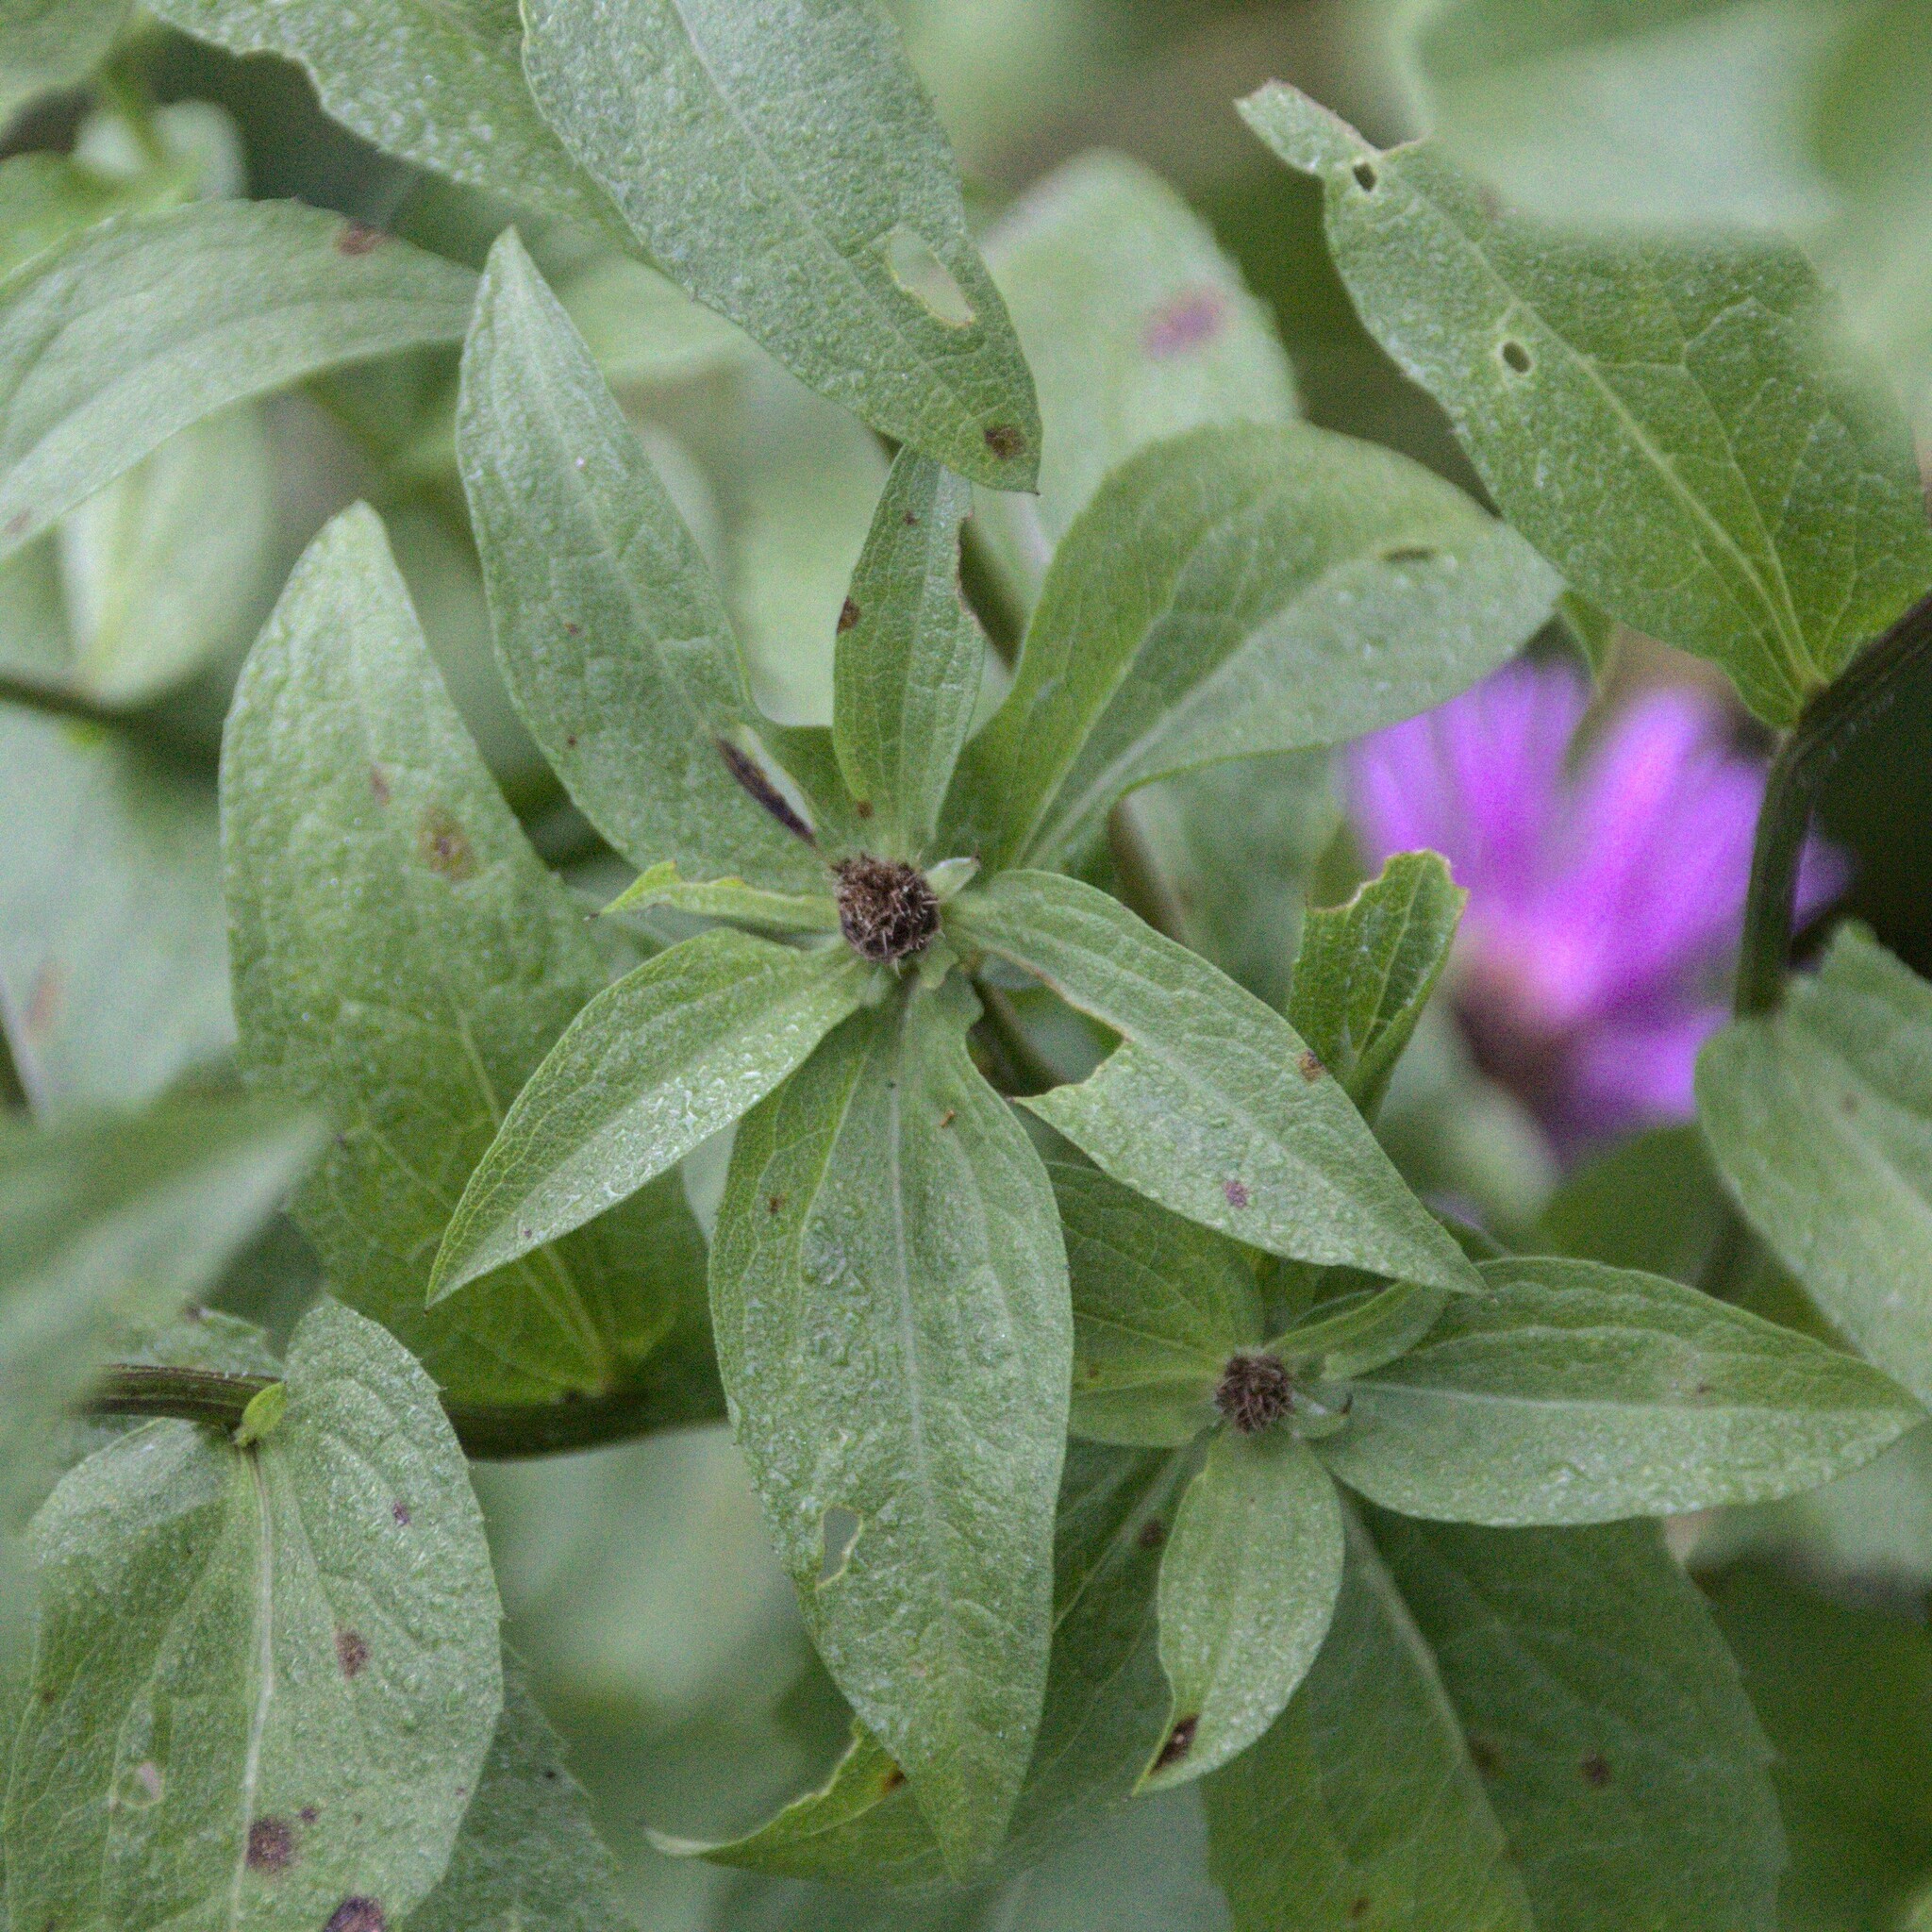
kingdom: Plantae
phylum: Tracheophyta
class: Magnoliopsida
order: Asterales
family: Asteraceae
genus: Centaurea
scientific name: Centaurea phrygia
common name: Wig knapweed
